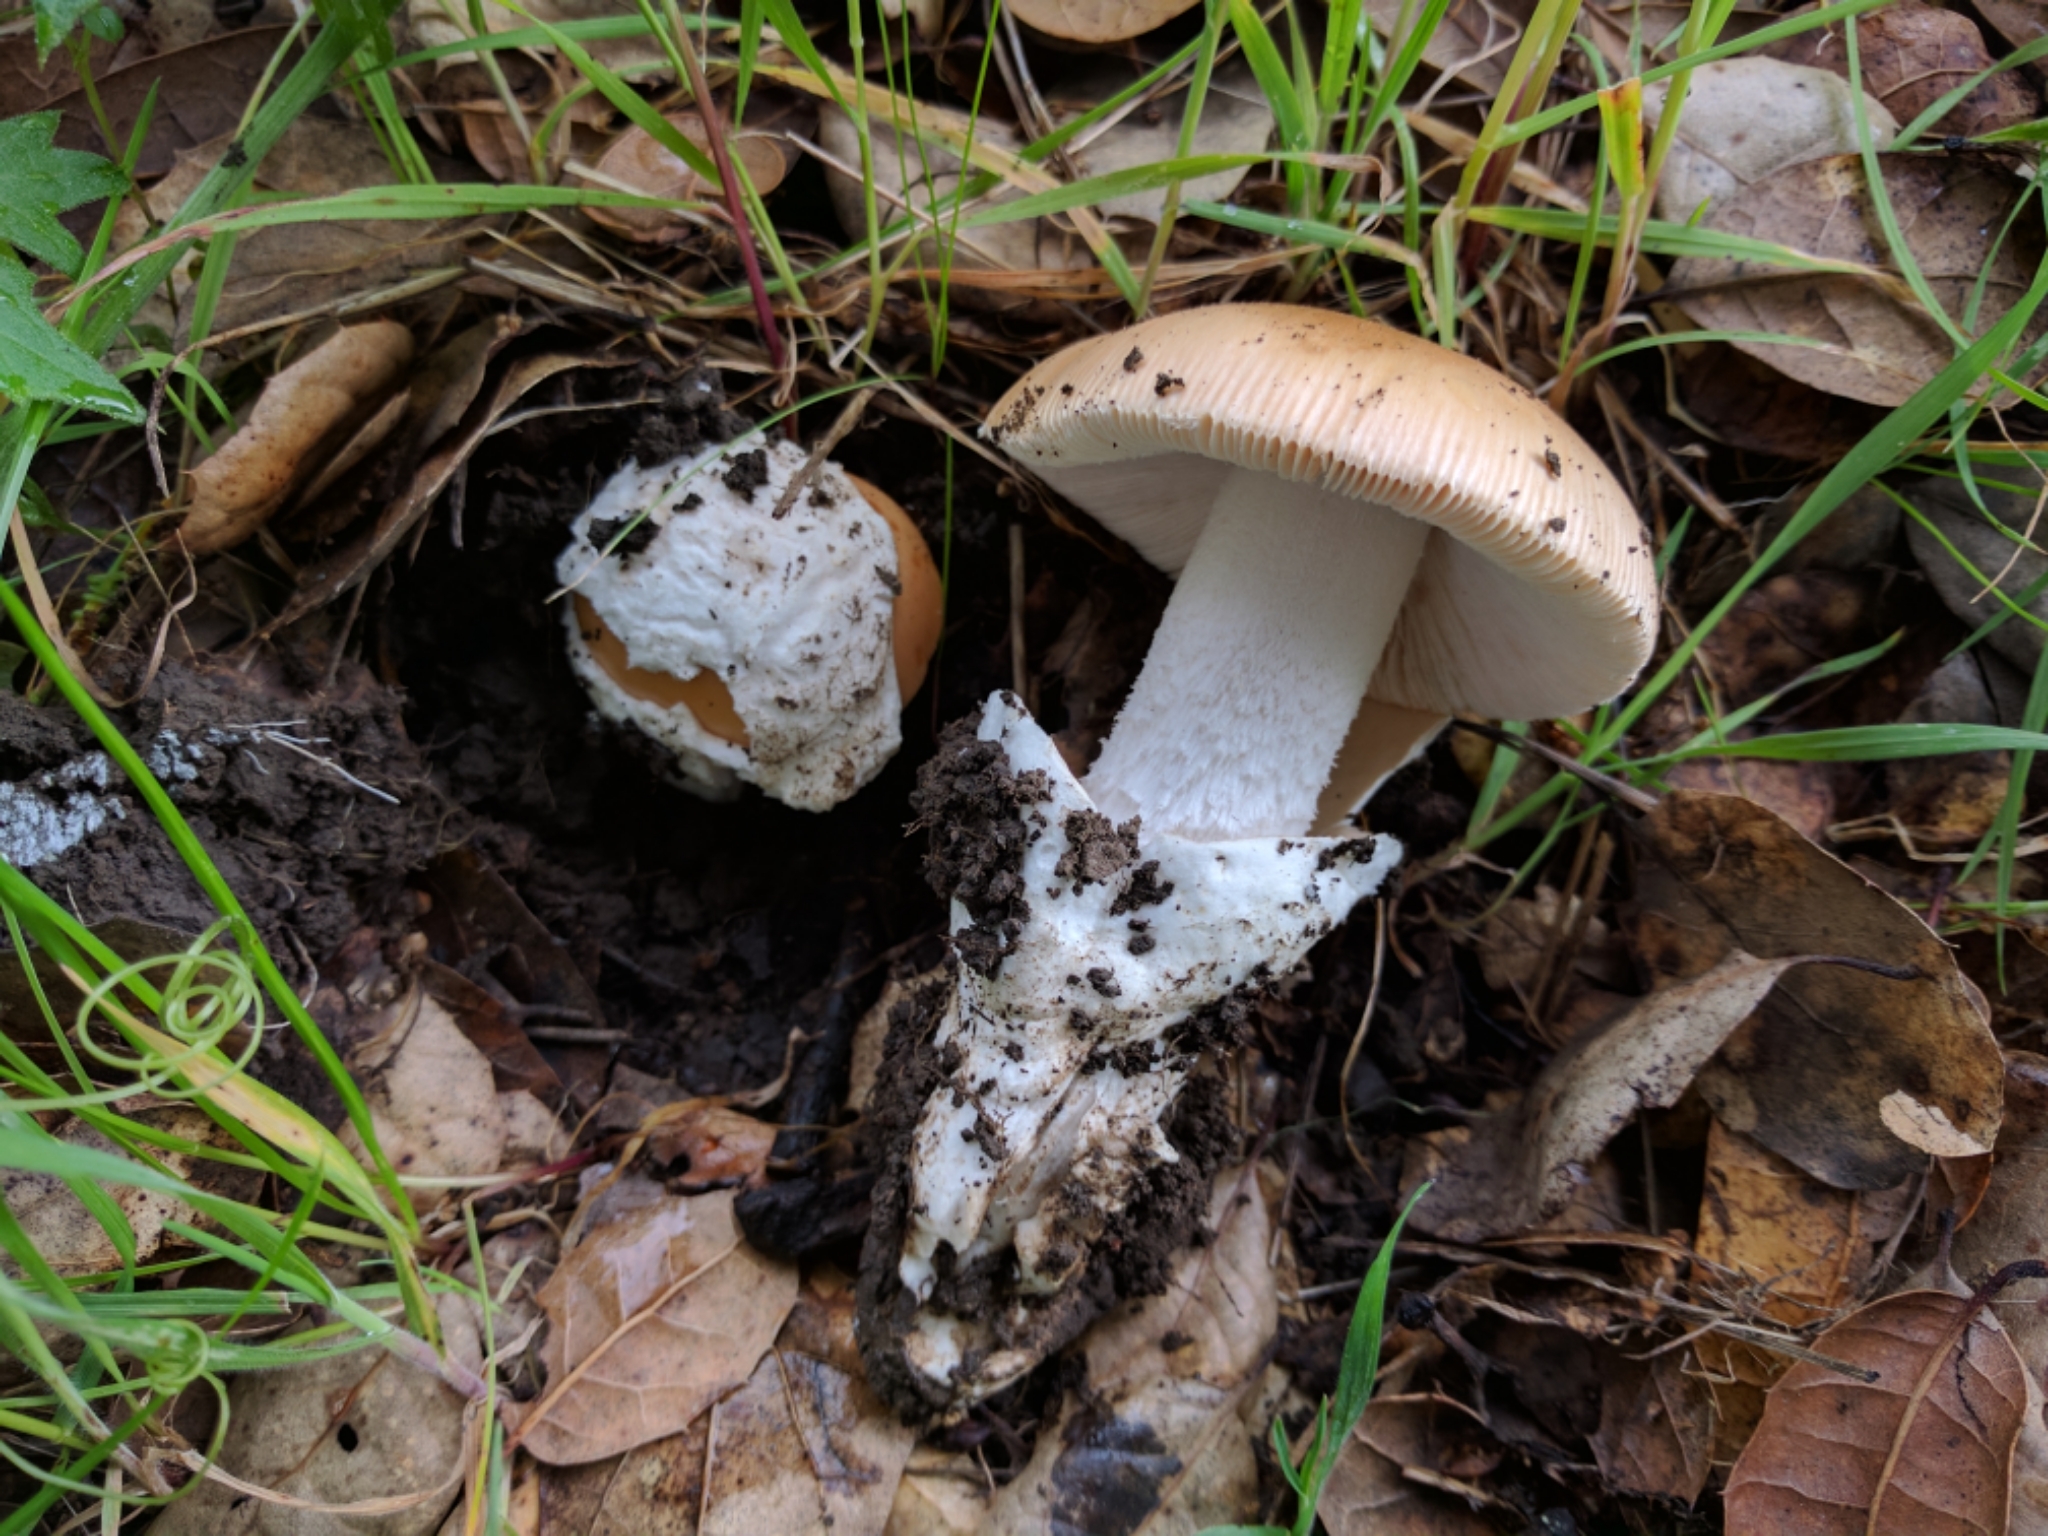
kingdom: Fungi
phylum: Basidiomycota
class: Agaricomycetes
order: Agaricales
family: Amanitaceae
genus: Amanita
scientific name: Amanita velosa
